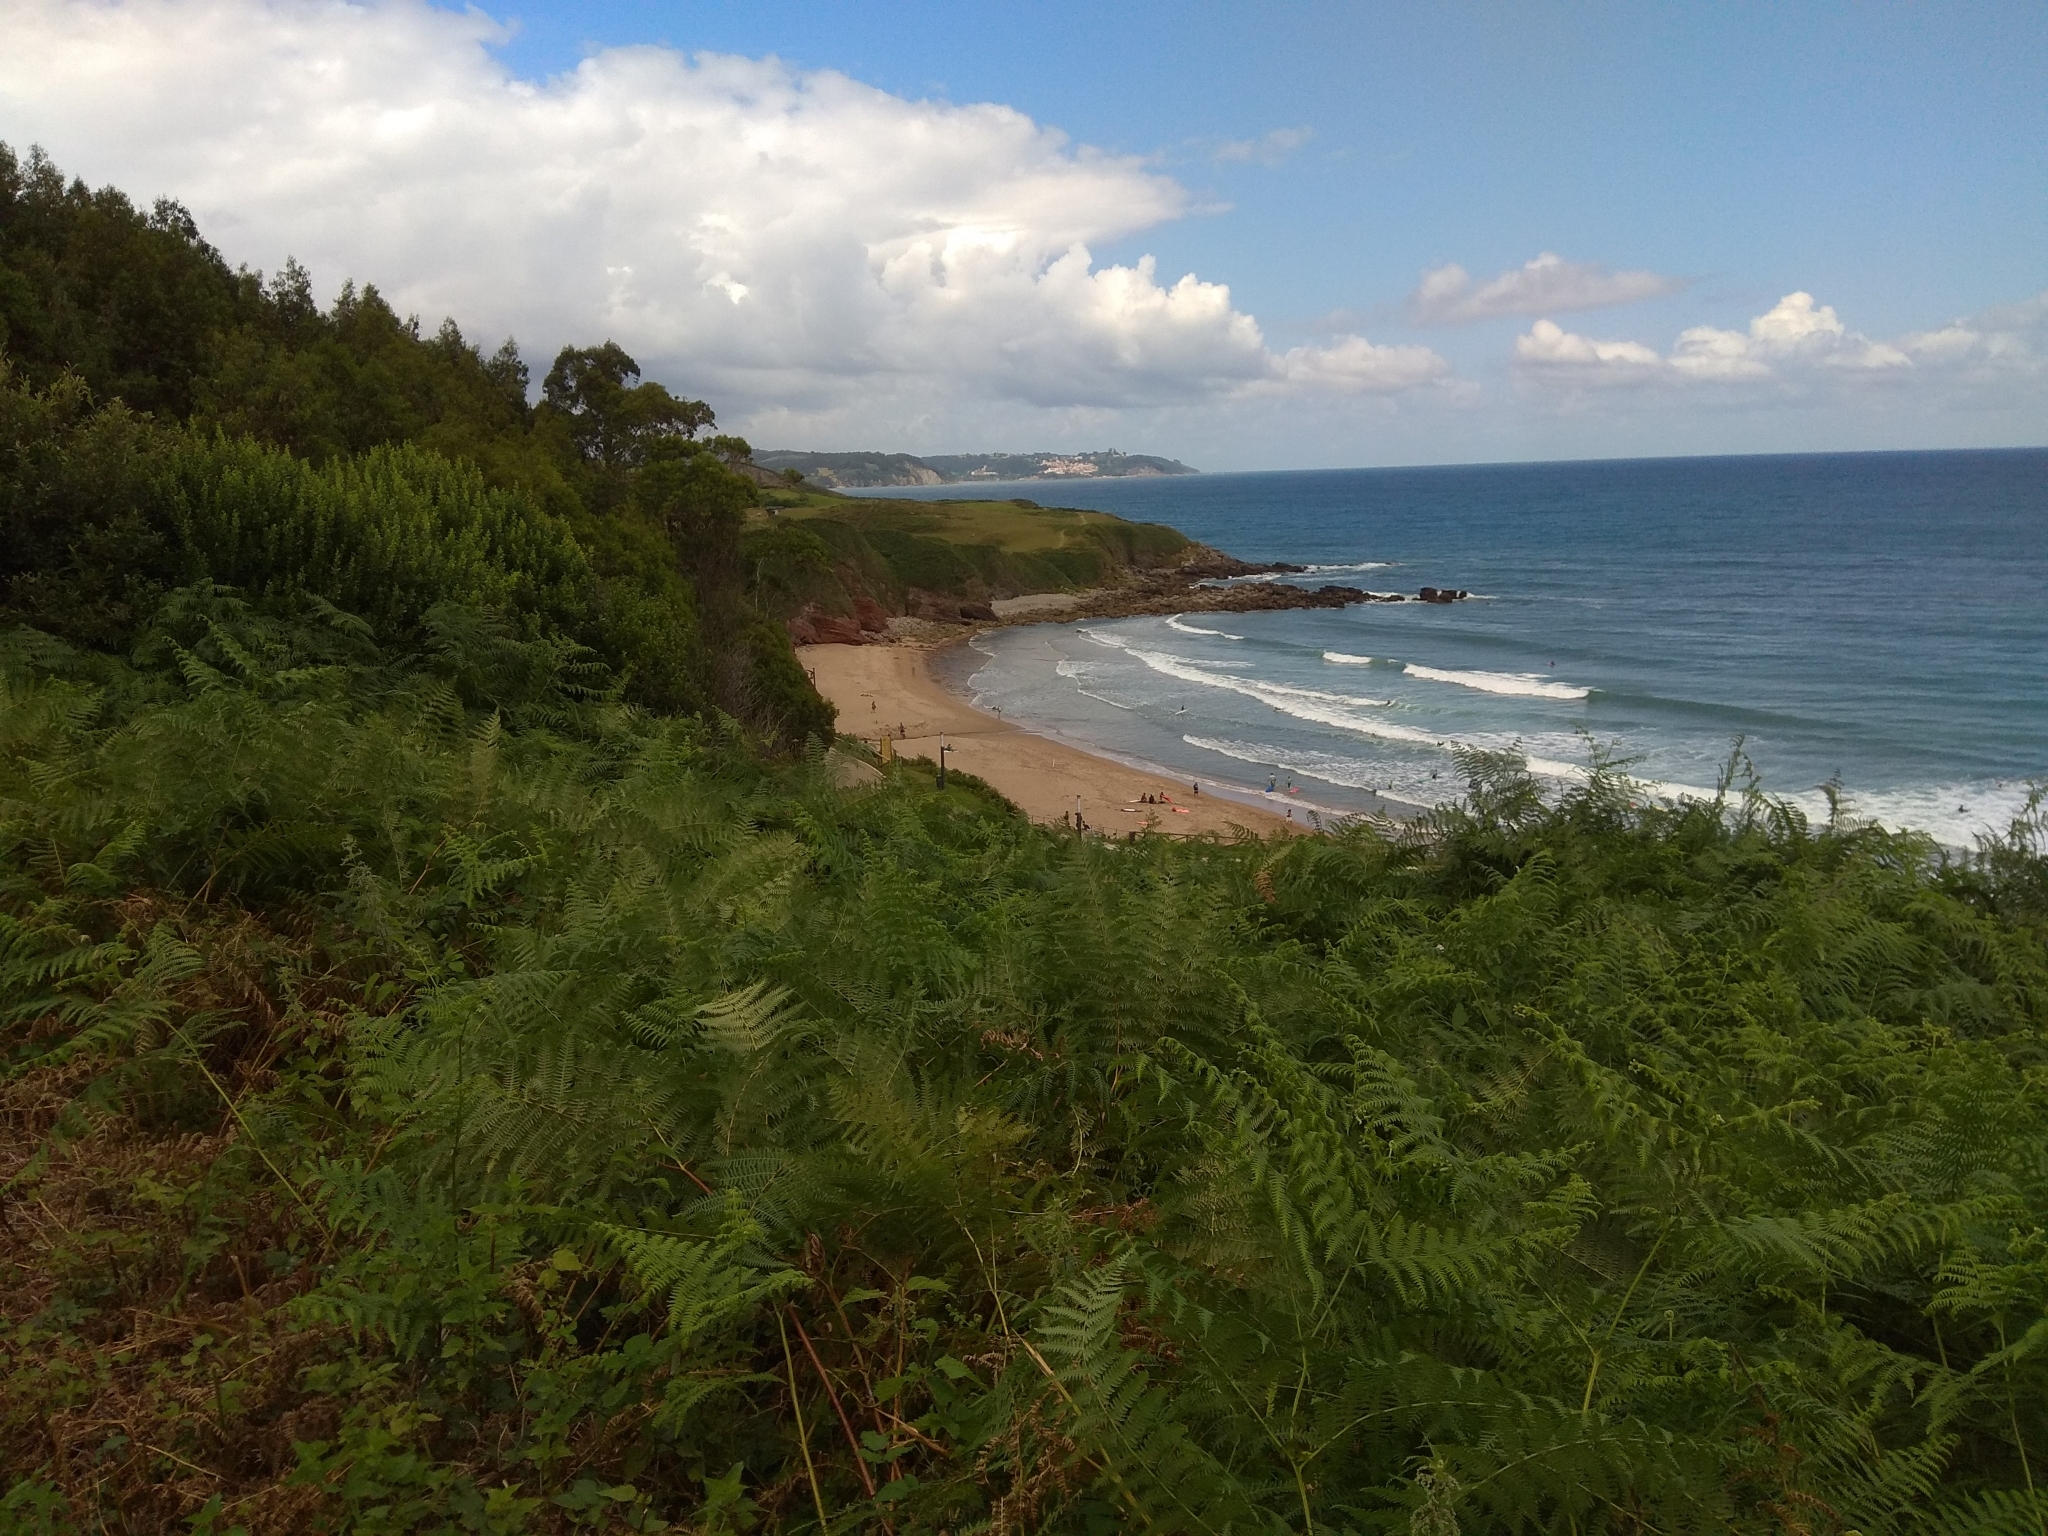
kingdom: Plantae
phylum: Tracheophyta
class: Polypodiopsida
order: Polypodiales
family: Dennstaedtiaceae
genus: Pteridium
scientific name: Pteridium aquilinum
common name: Bracken
